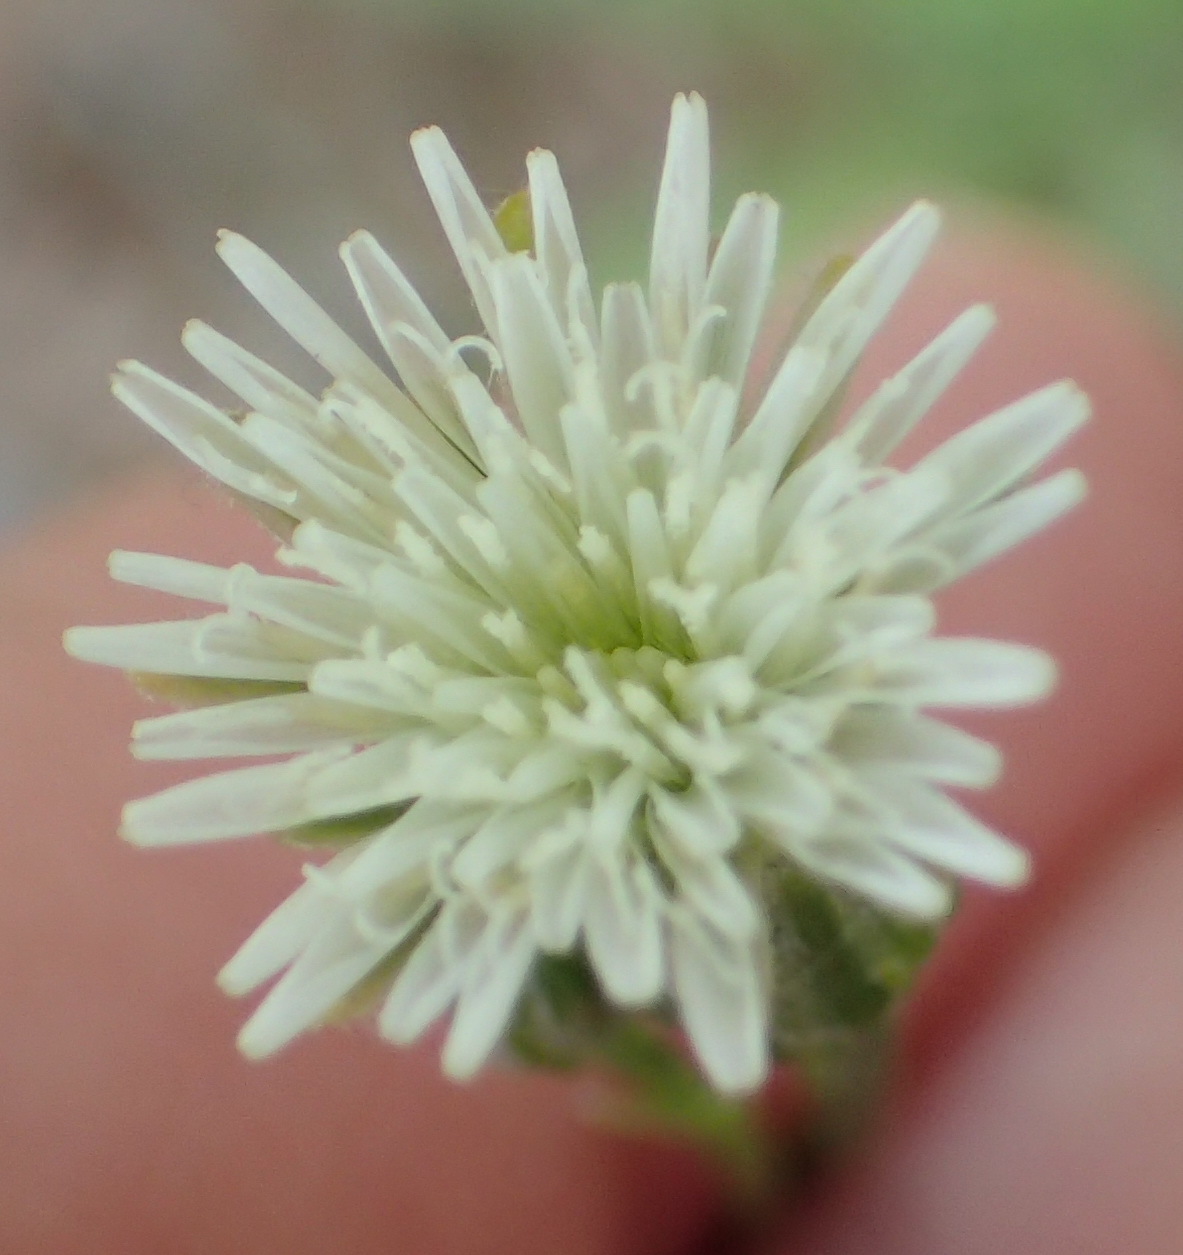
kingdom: Plantae
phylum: Tracheophyta
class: Magnoliopsida
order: Asterales
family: Asteraceae
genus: Hypochaeris
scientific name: Hypochaeris albiflora
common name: White flatweed
